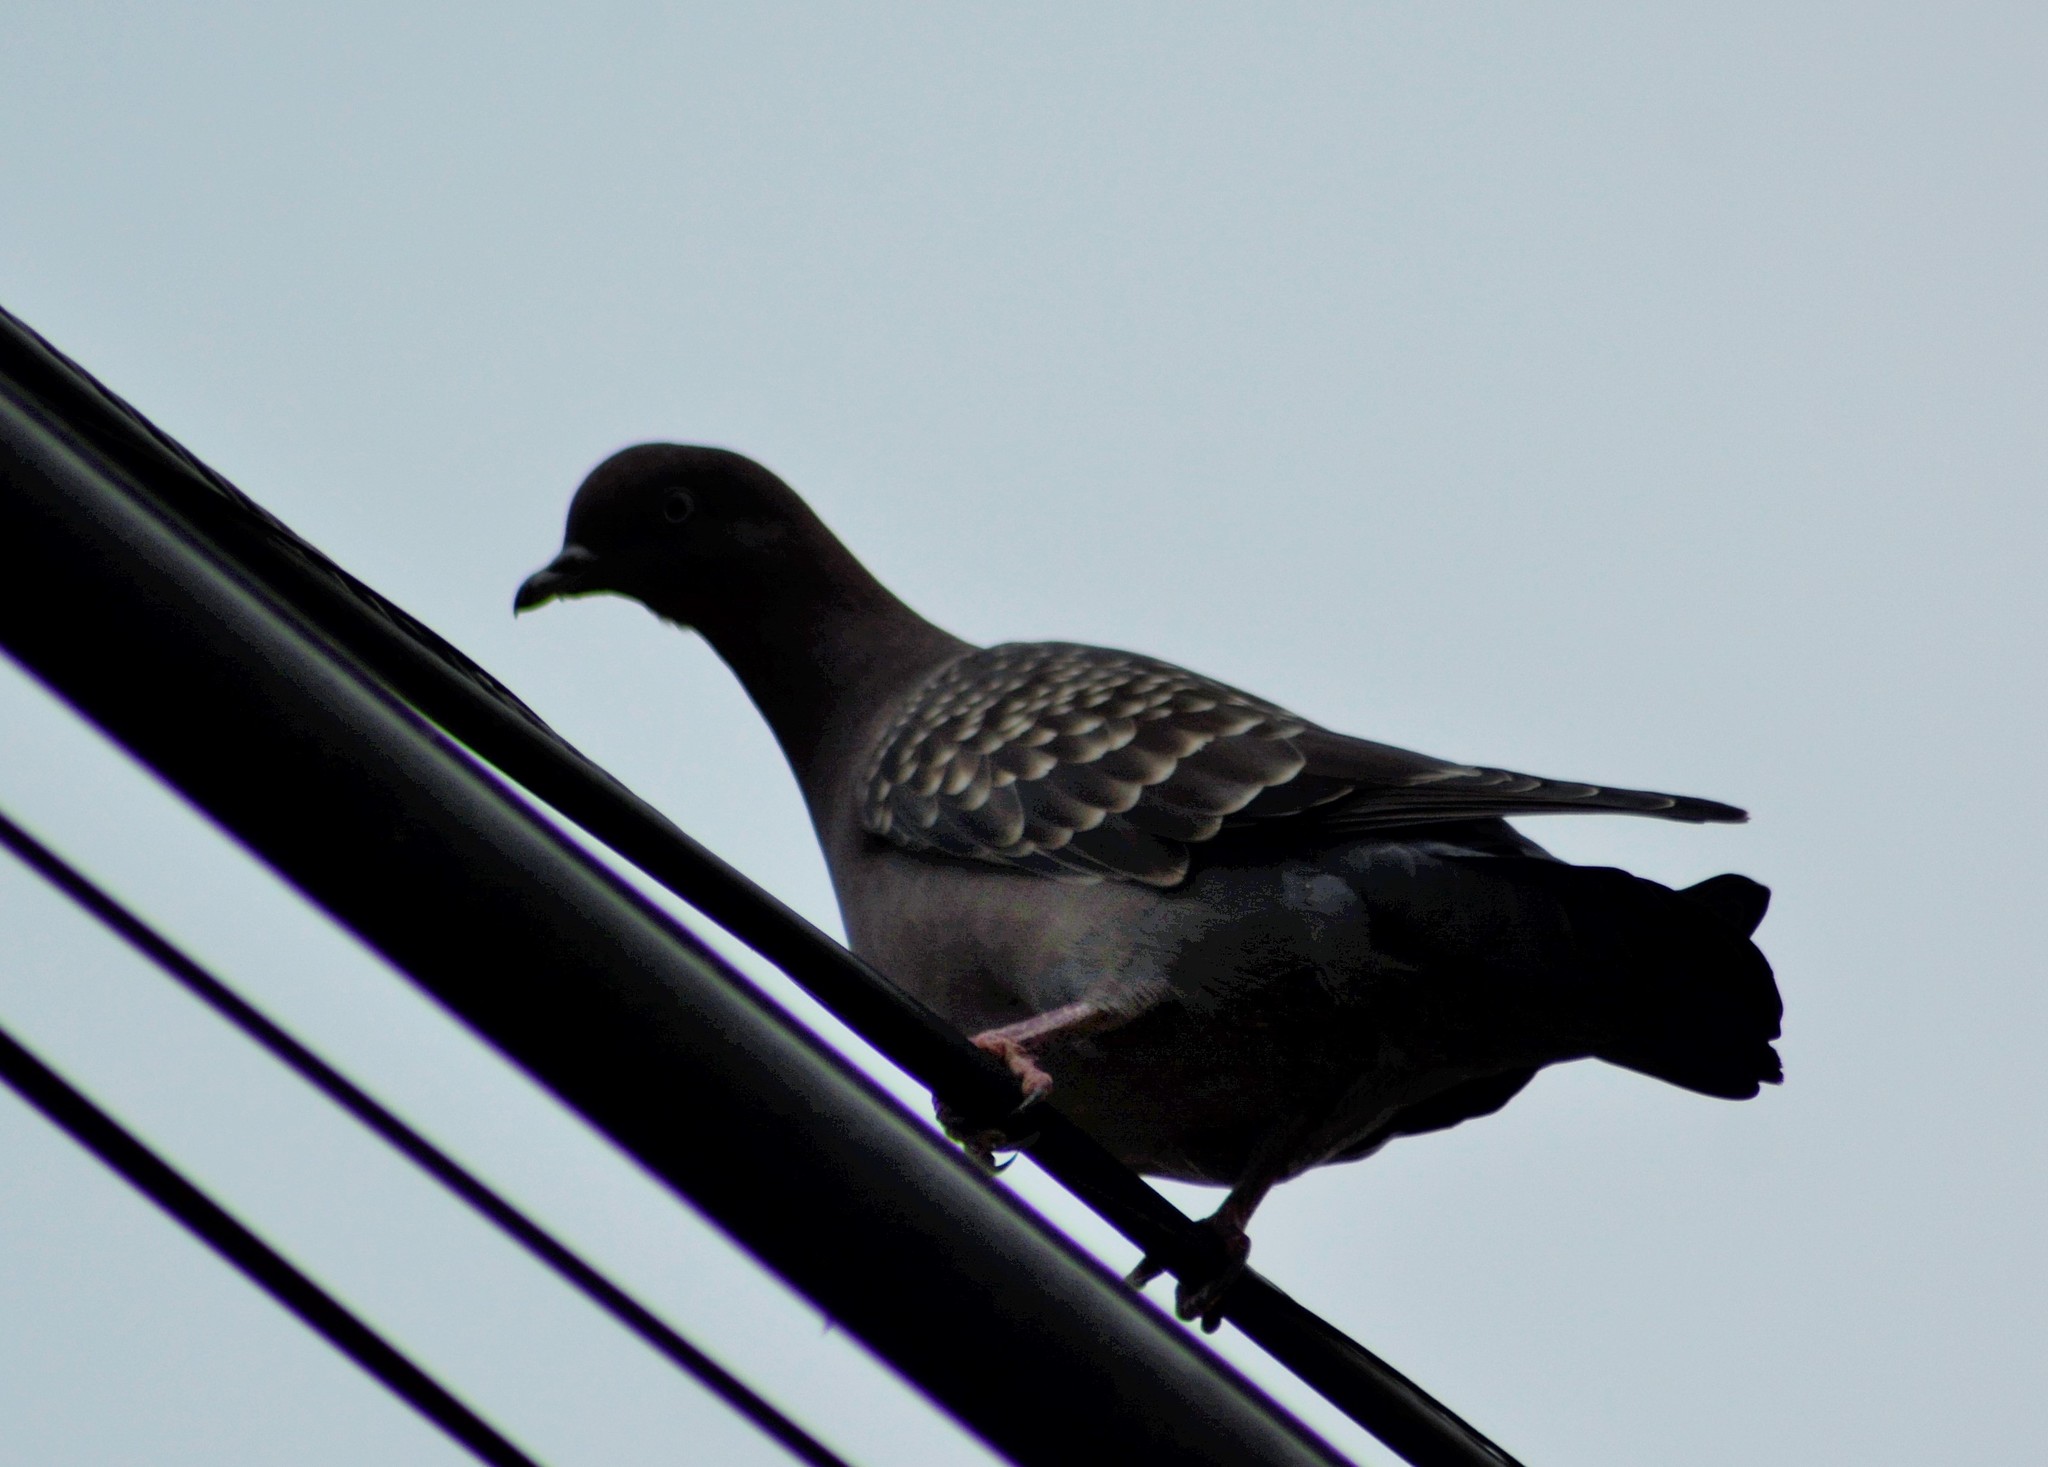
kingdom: Animalia
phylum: Chordata
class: Aves
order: Columbiformes
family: Columbidae
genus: Patagioenas
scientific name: Patagioenas maculosa
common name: Spot-winged pigeon
